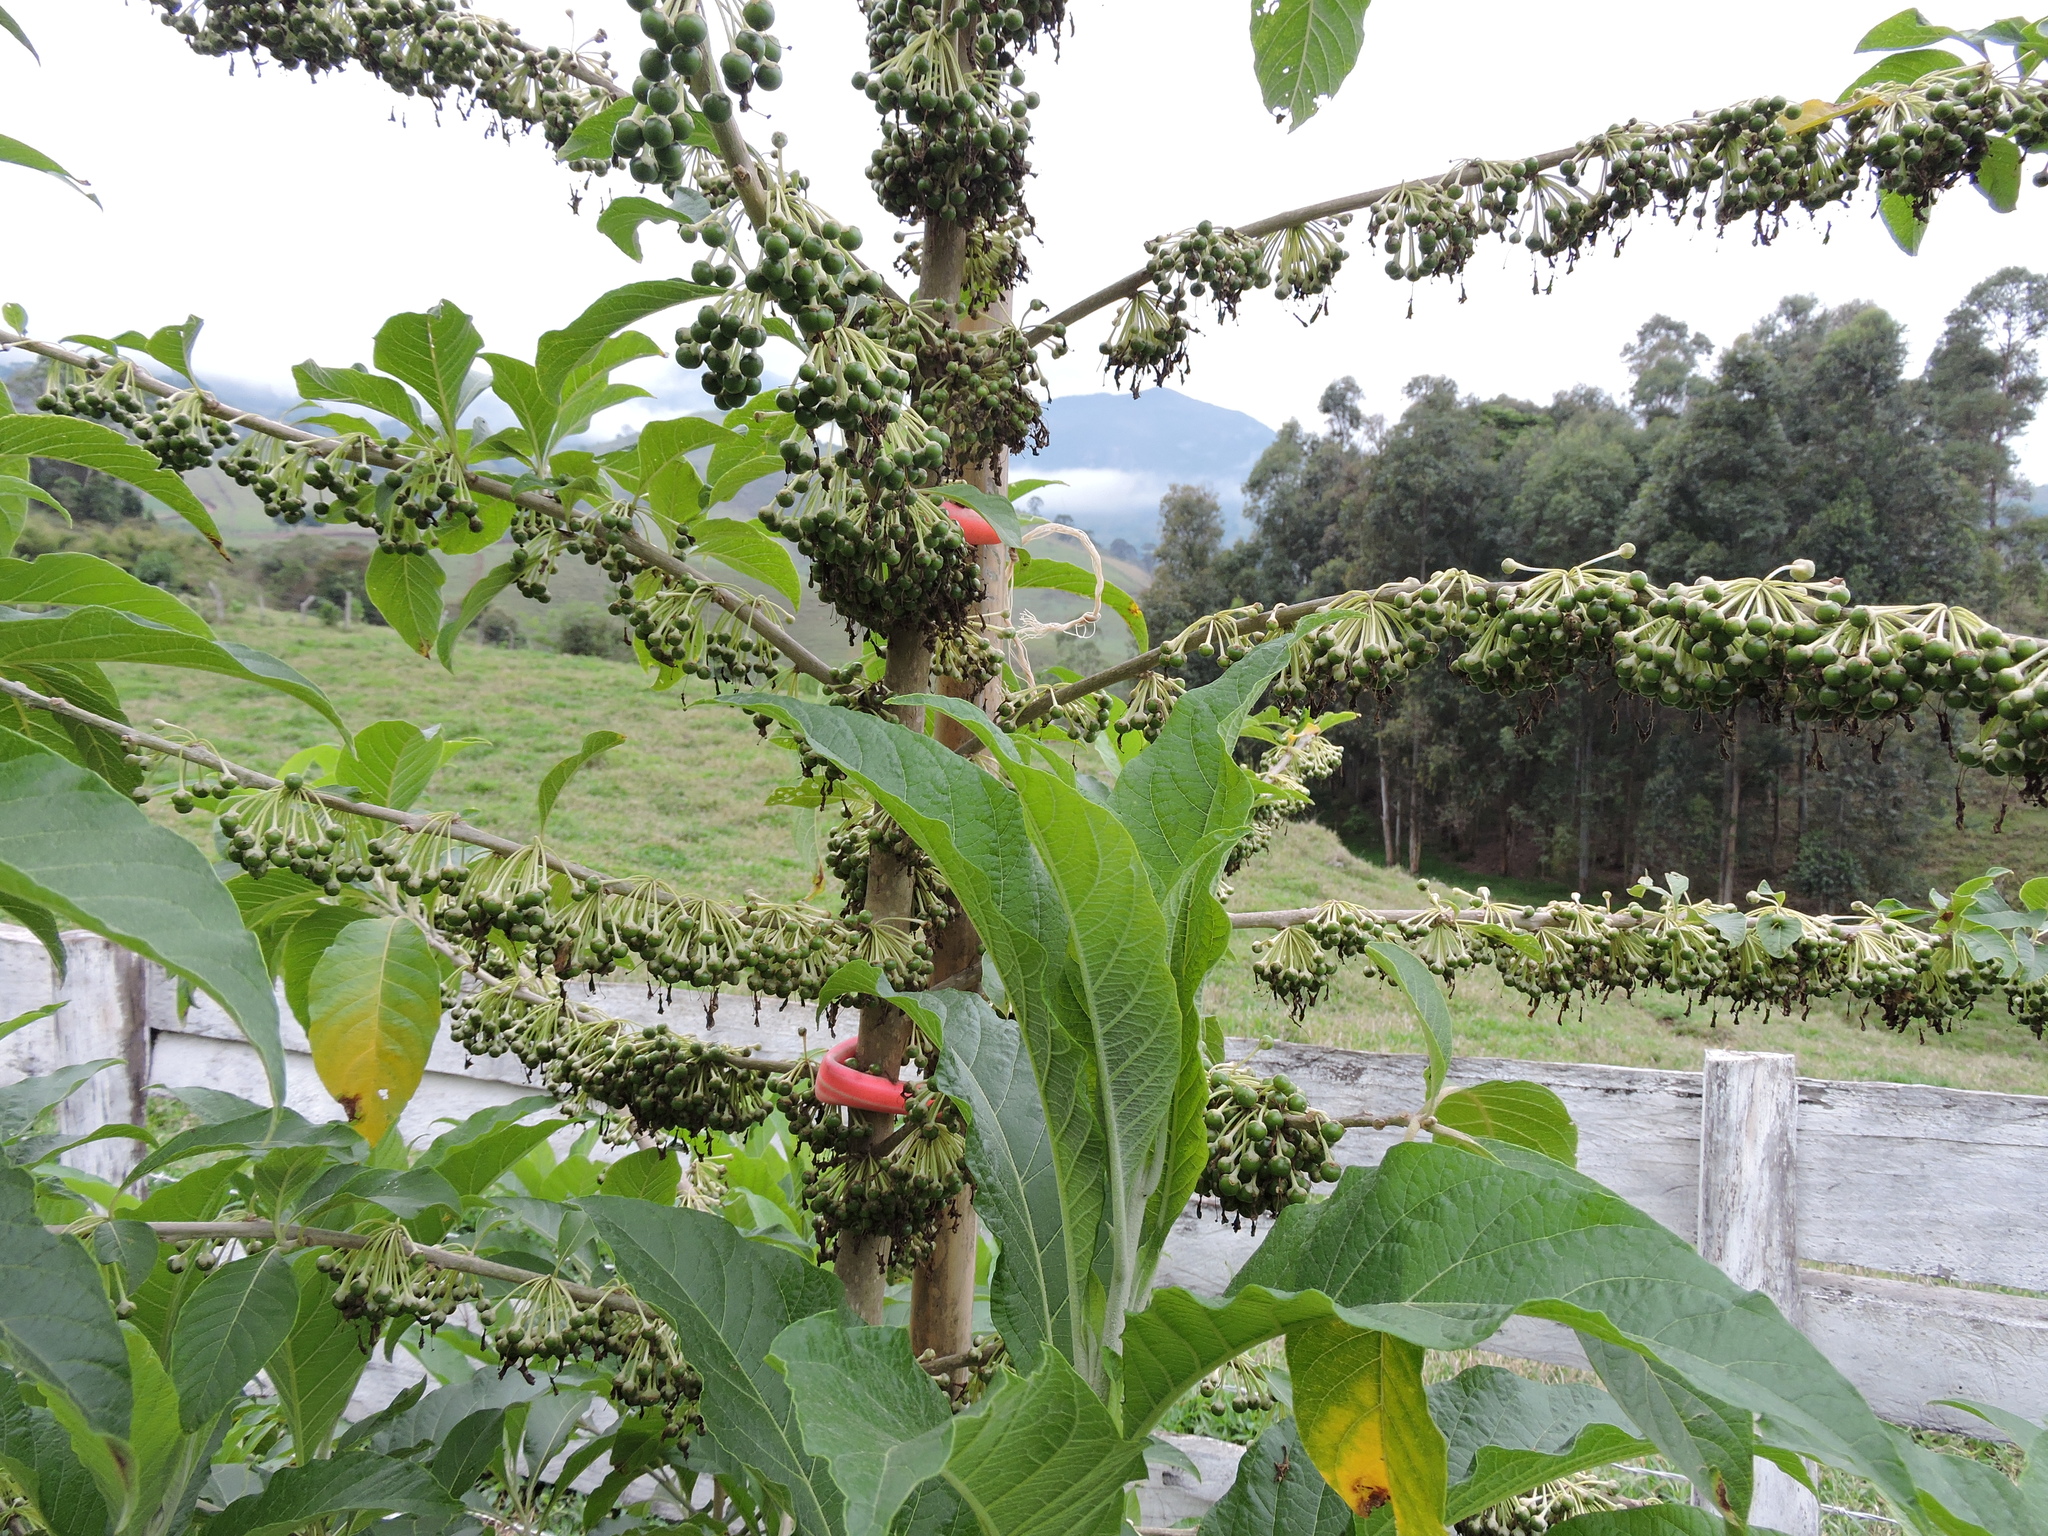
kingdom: Plantae
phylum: Tracheophyta
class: Magnoliopsida
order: Solanales
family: Solanaceae
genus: Iochroma
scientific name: Iochroma arborescens
